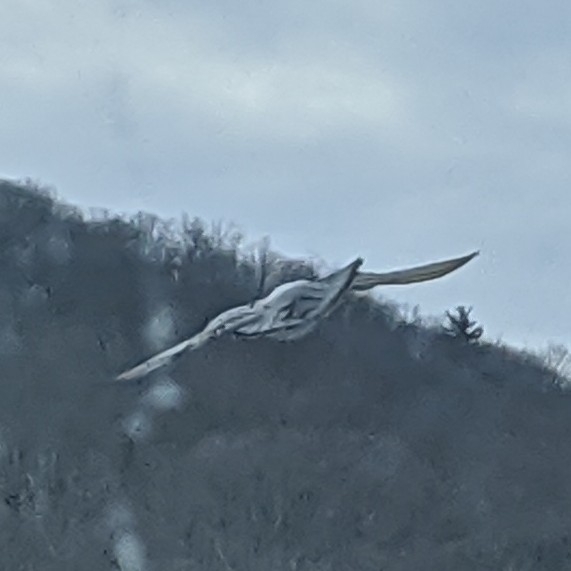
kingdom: Animalia
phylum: Chordata
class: Aves
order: Columbiformes
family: Columbidae
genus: Columba
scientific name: Columba livia
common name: Rock pigeon
